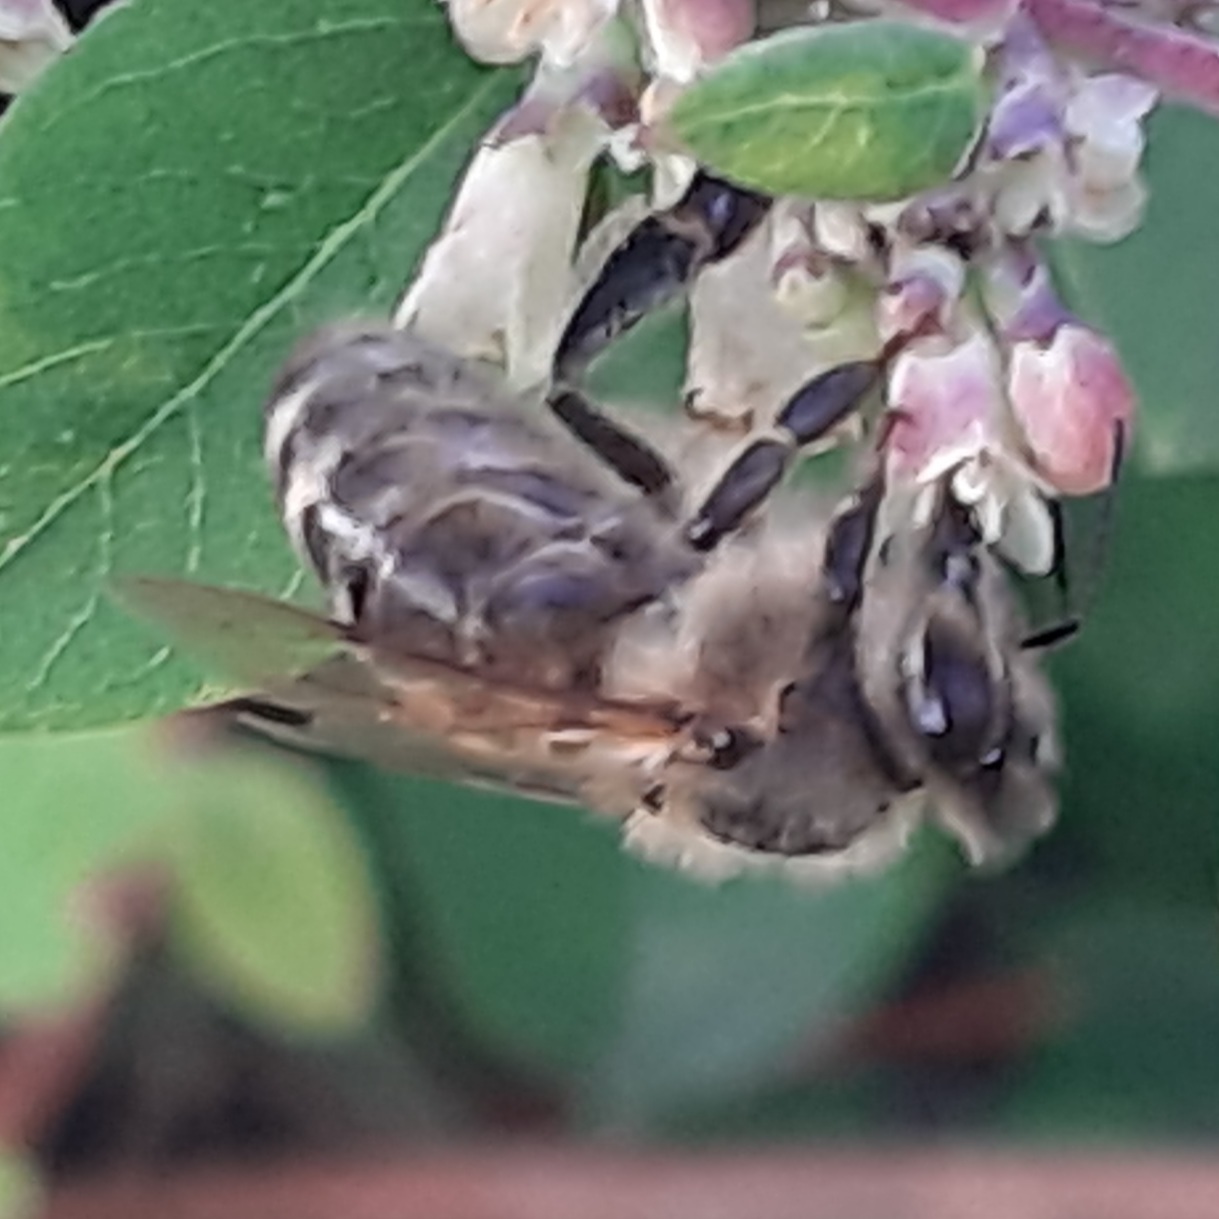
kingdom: Animalia
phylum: Arthropoda
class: Insecta
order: Hymenoptera
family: Apidae
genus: Apis
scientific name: Apis mellifera
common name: Honey bee
